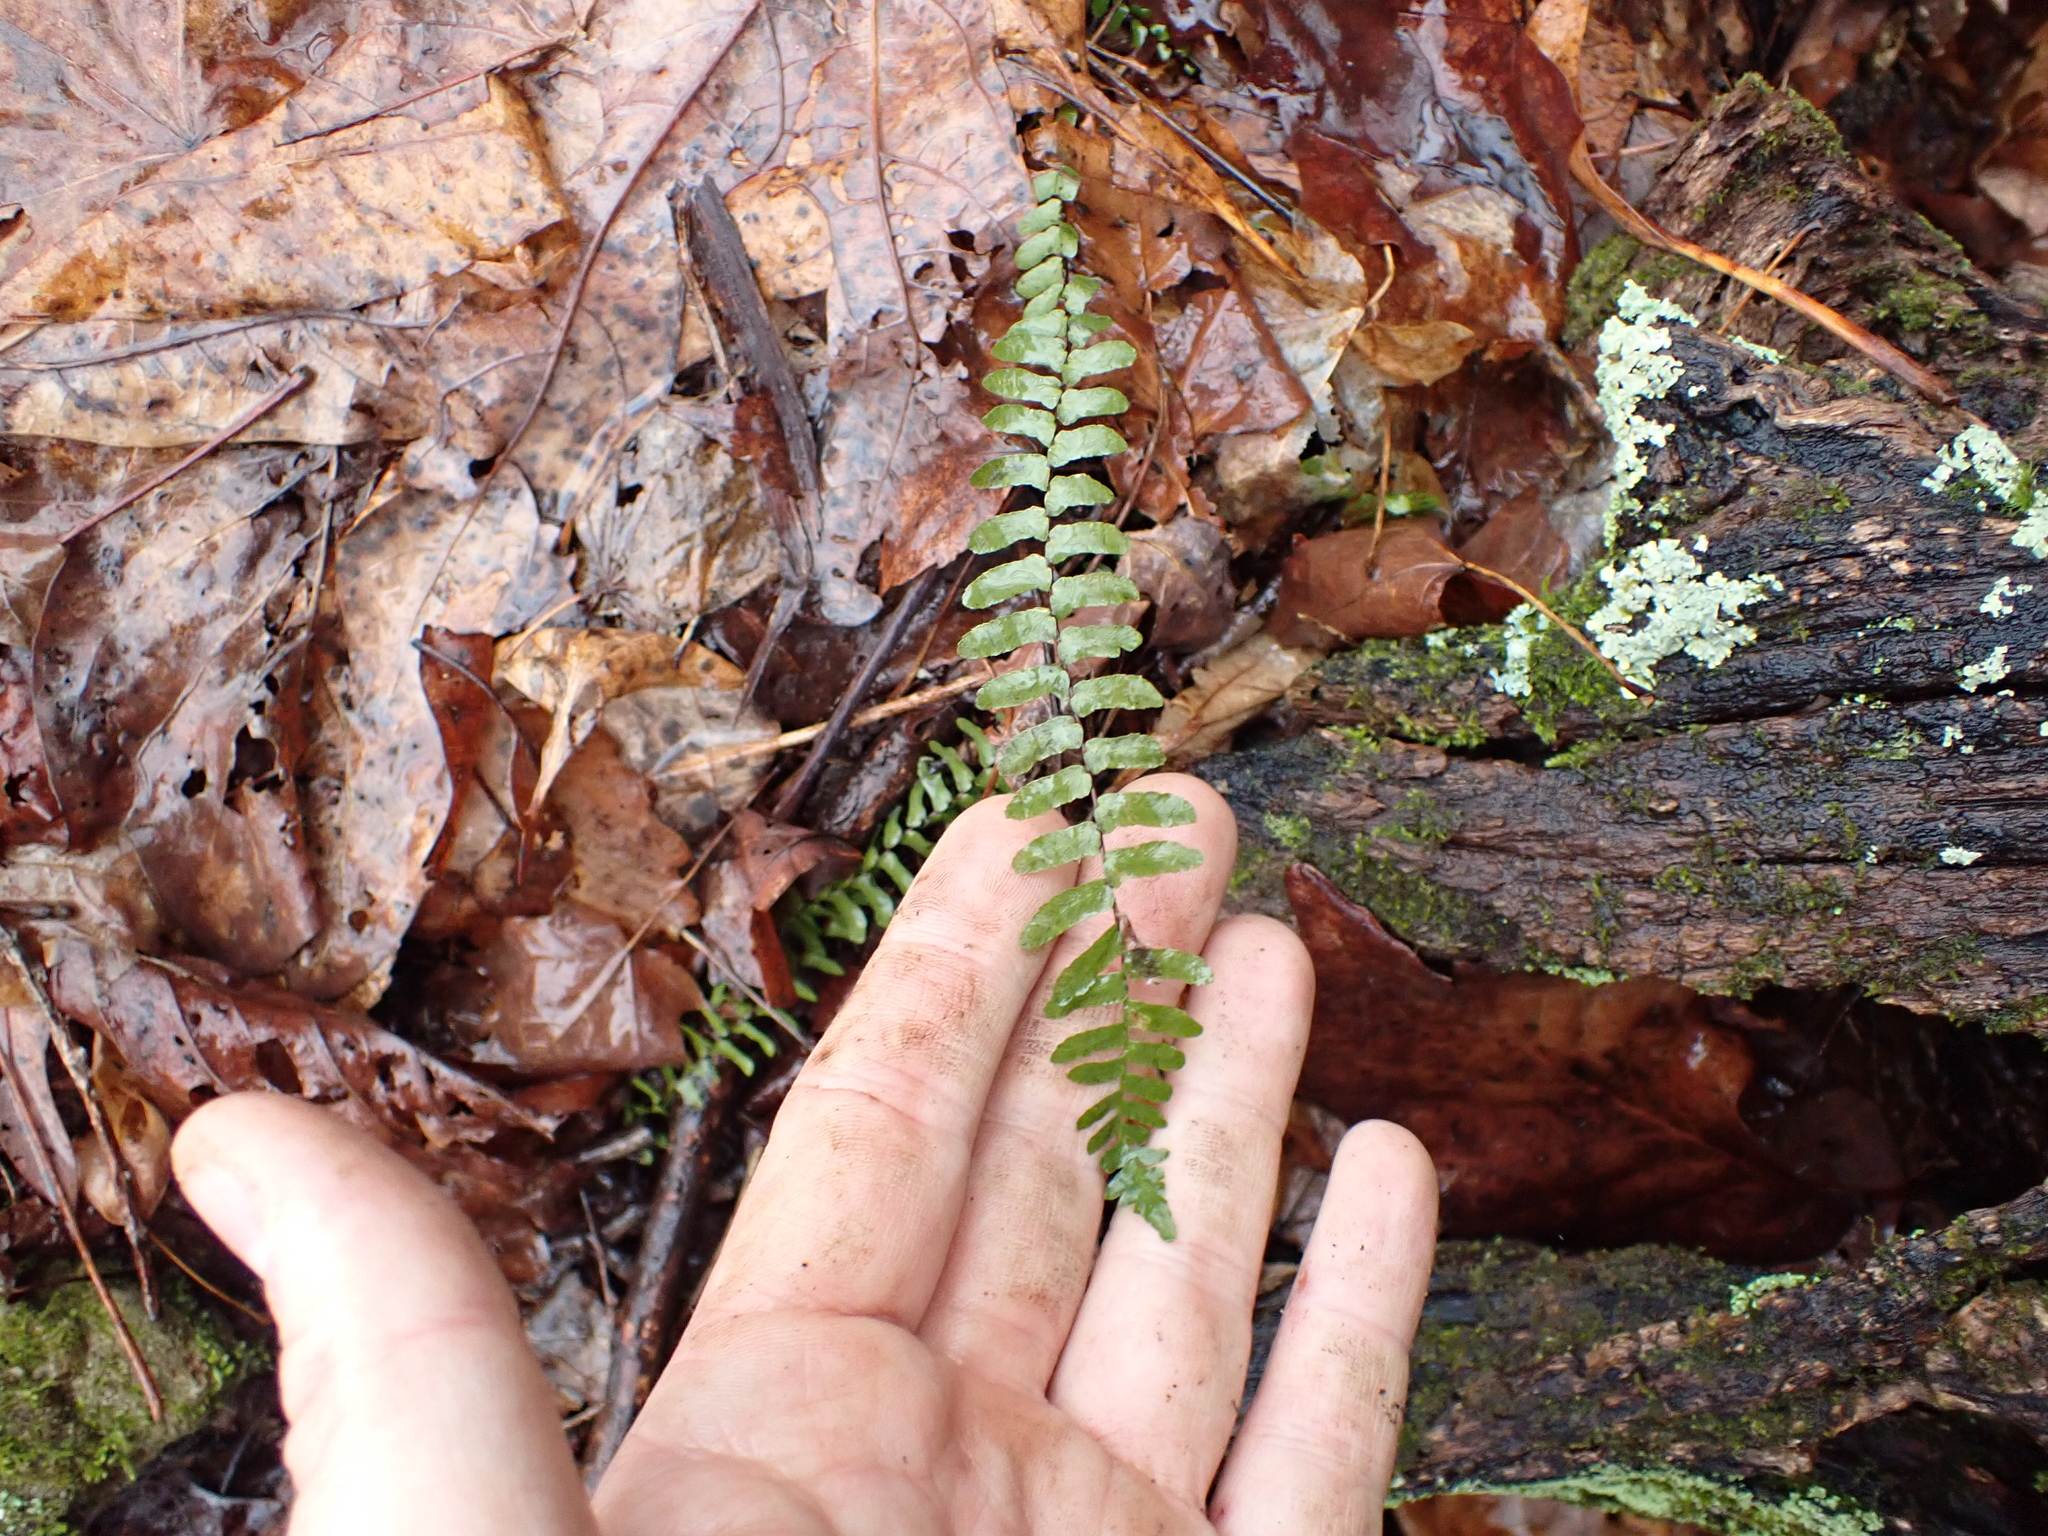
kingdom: Plantae
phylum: Tracheophyta
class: Polypodiopsida
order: Polypodiales
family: Aspleniaceae
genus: Asplenium
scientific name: Asplenium platyneuron
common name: Ebony spleenwort
